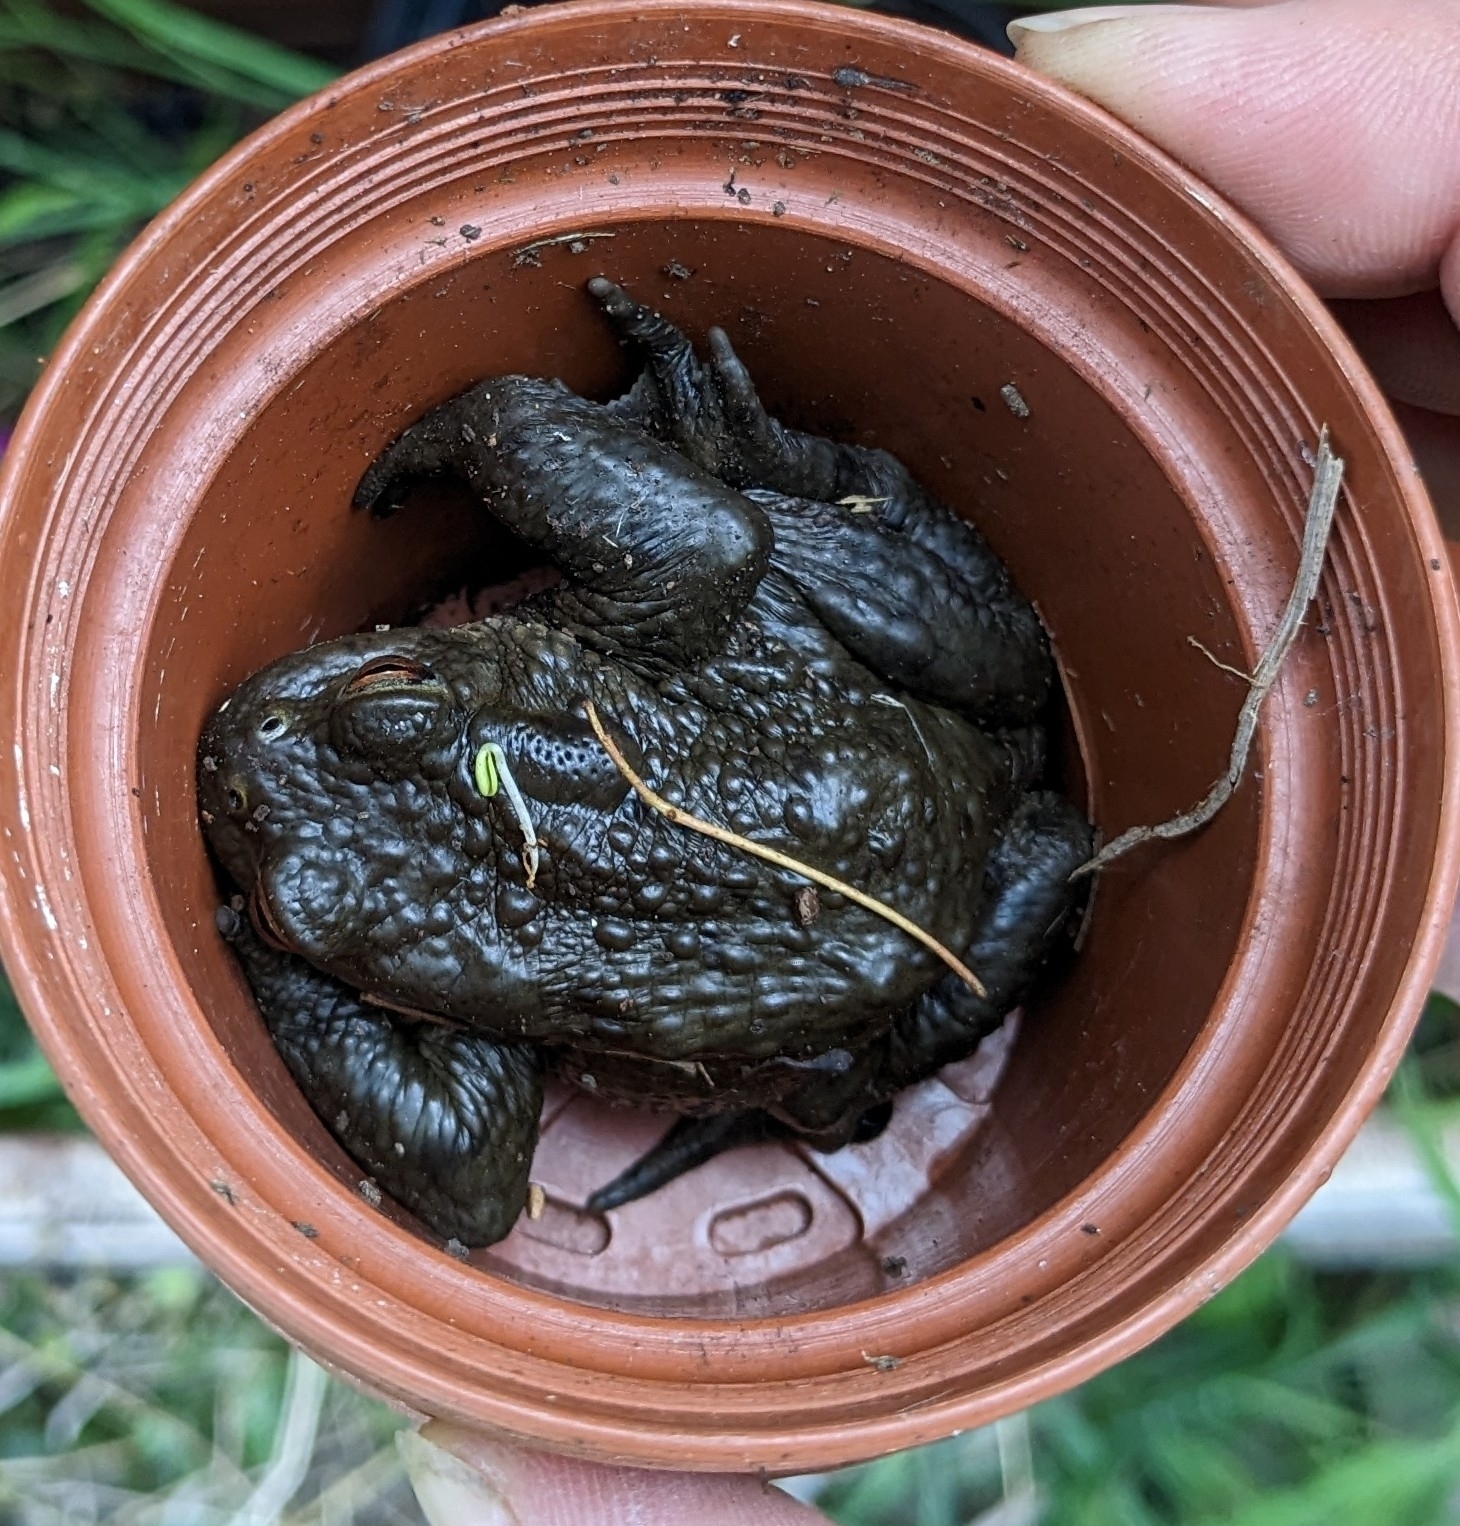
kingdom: Animalia
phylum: Chordata
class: Amphibia
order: Anura
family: Bufonidae
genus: Bufo
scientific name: Bufo bufo
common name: Common toad
